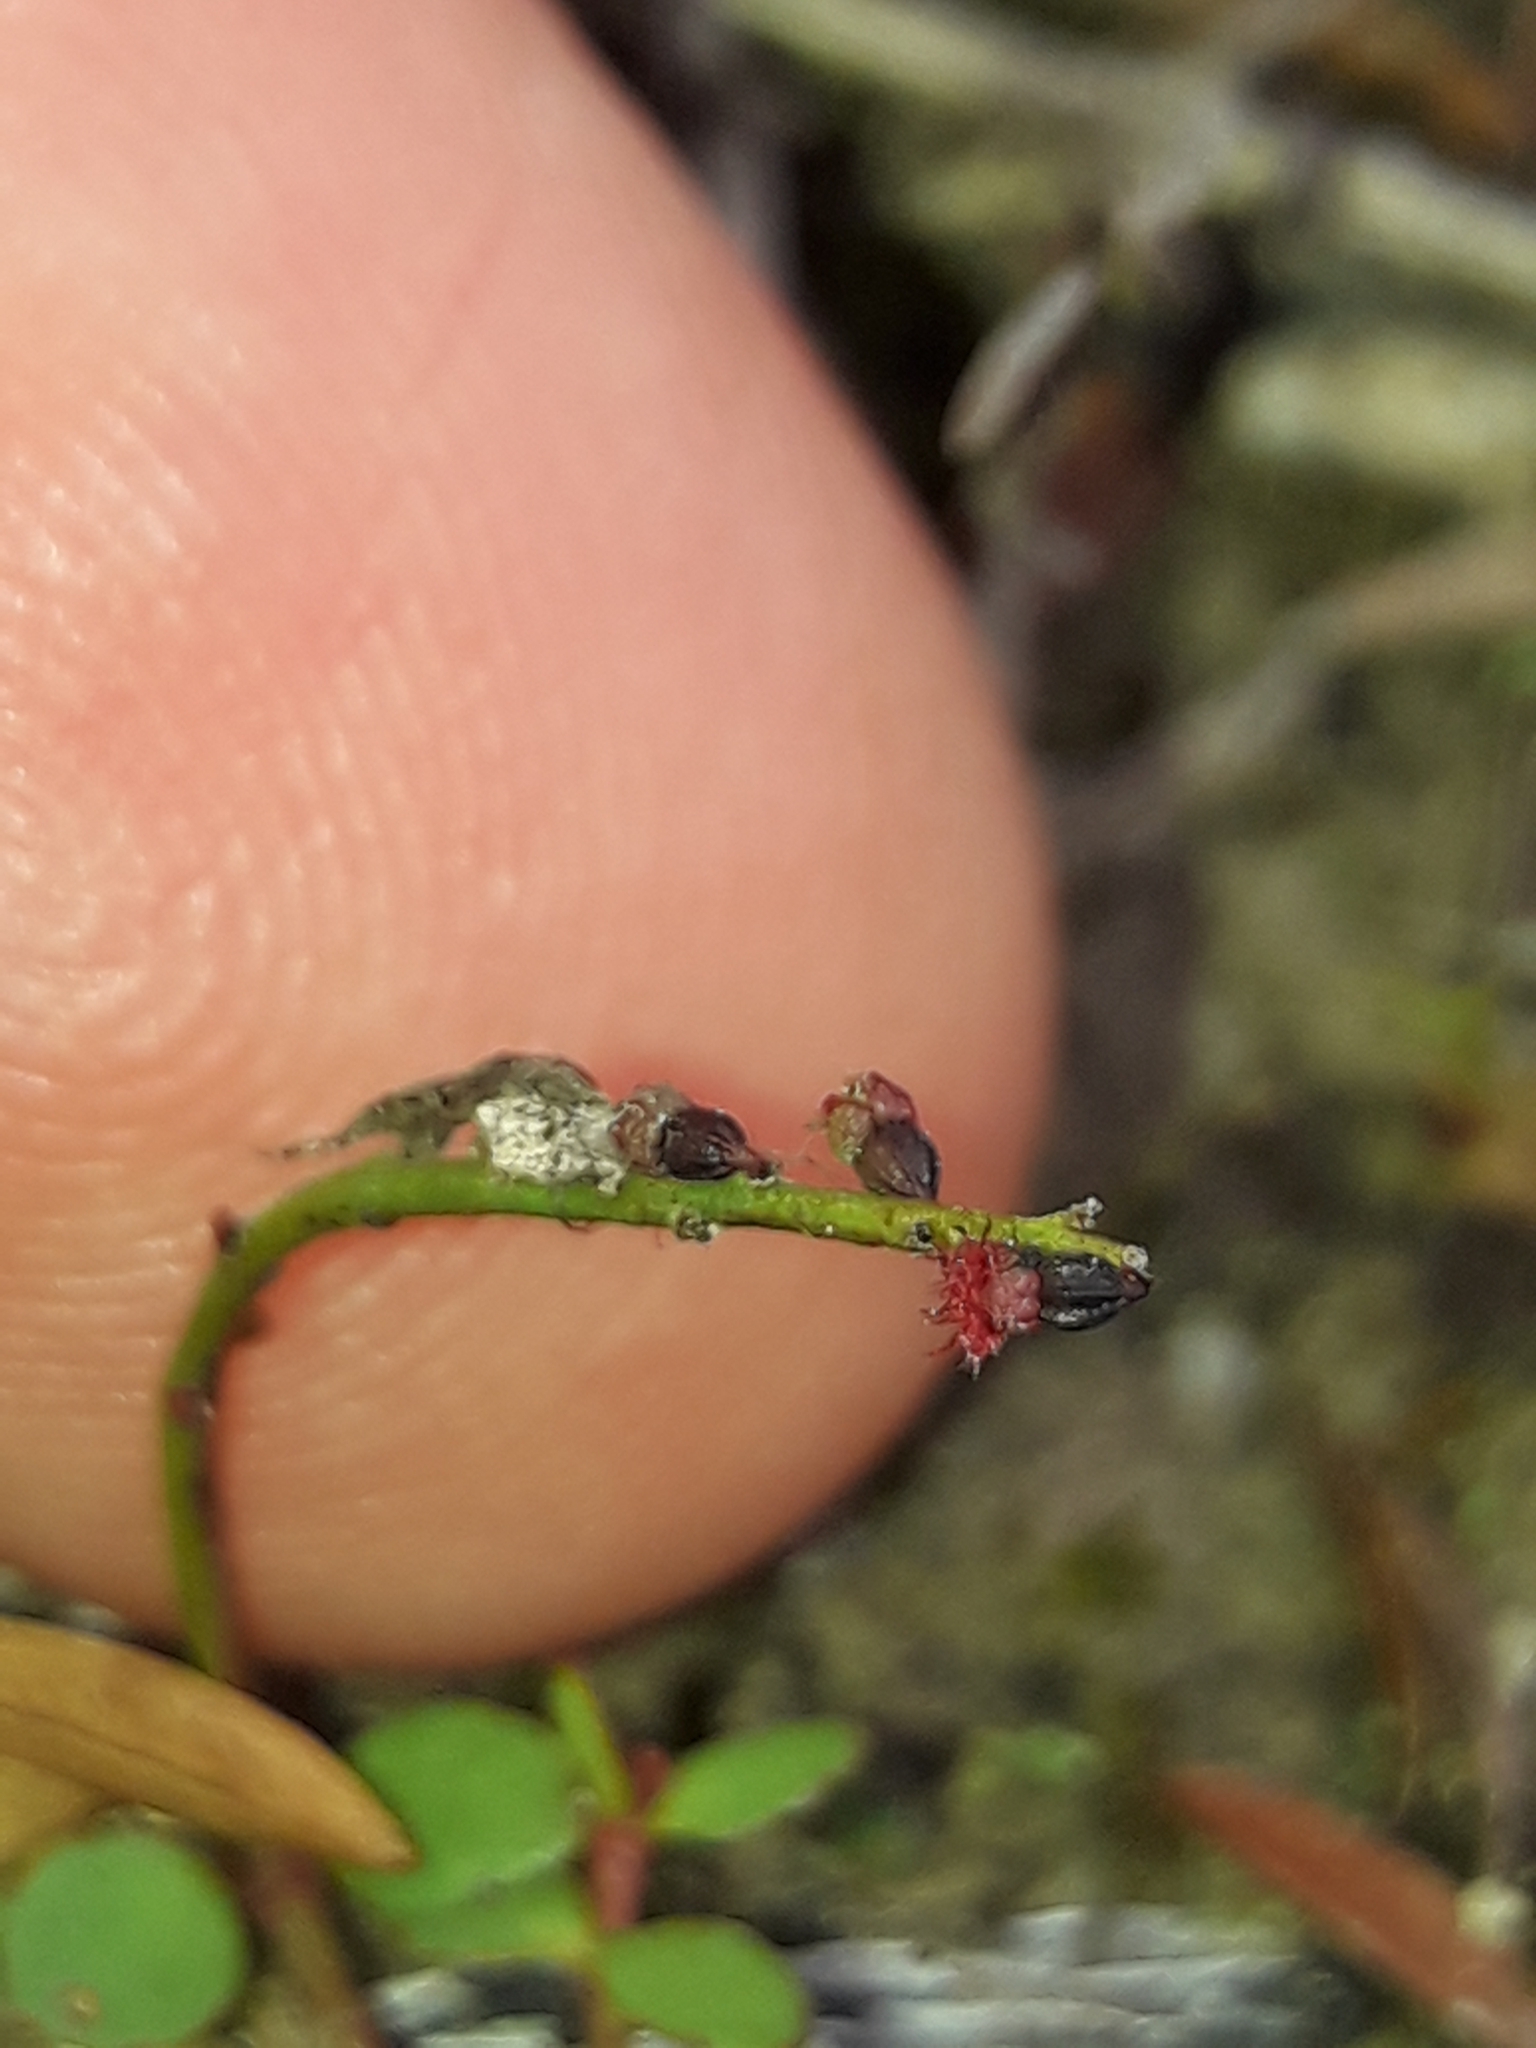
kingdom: Plantae
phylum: Tracheophyta
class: Magnoliopsida
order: Saxifragales
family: Haloragaceae
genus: Gonocarpus
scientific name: Gonocarpus micranthus
